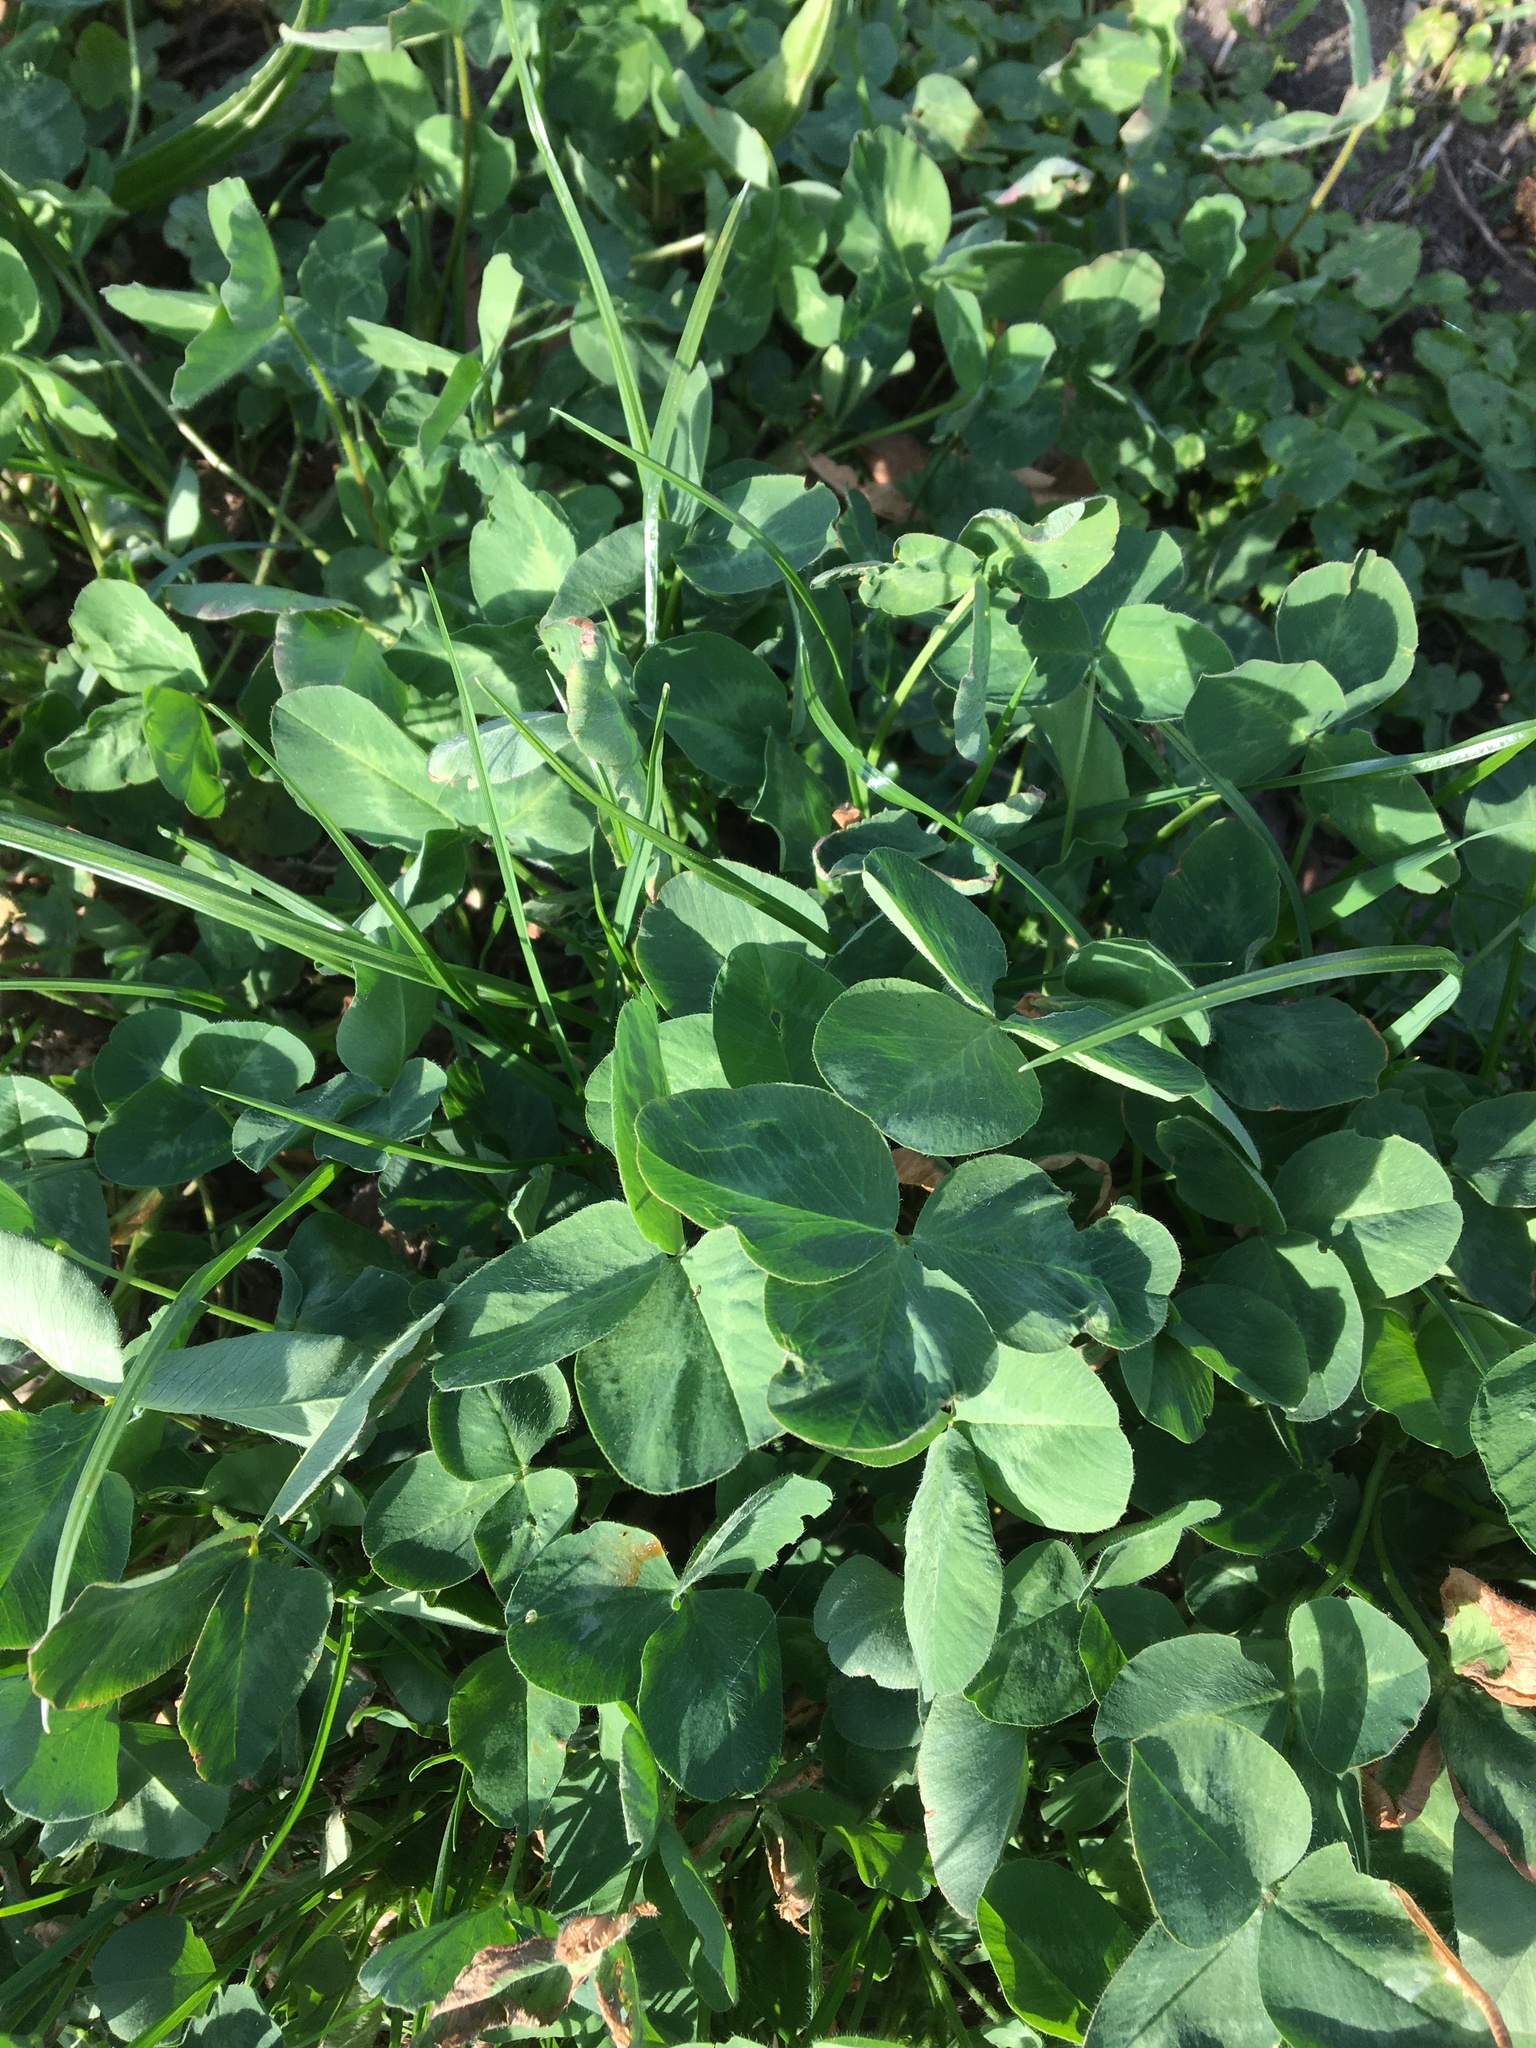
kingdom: Plantae
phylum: Tracheophyta
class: Magnoliopsida
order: Fabales
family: Fabaceae
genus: Trifolium
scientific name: Trifolium pratense
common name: Red clover
